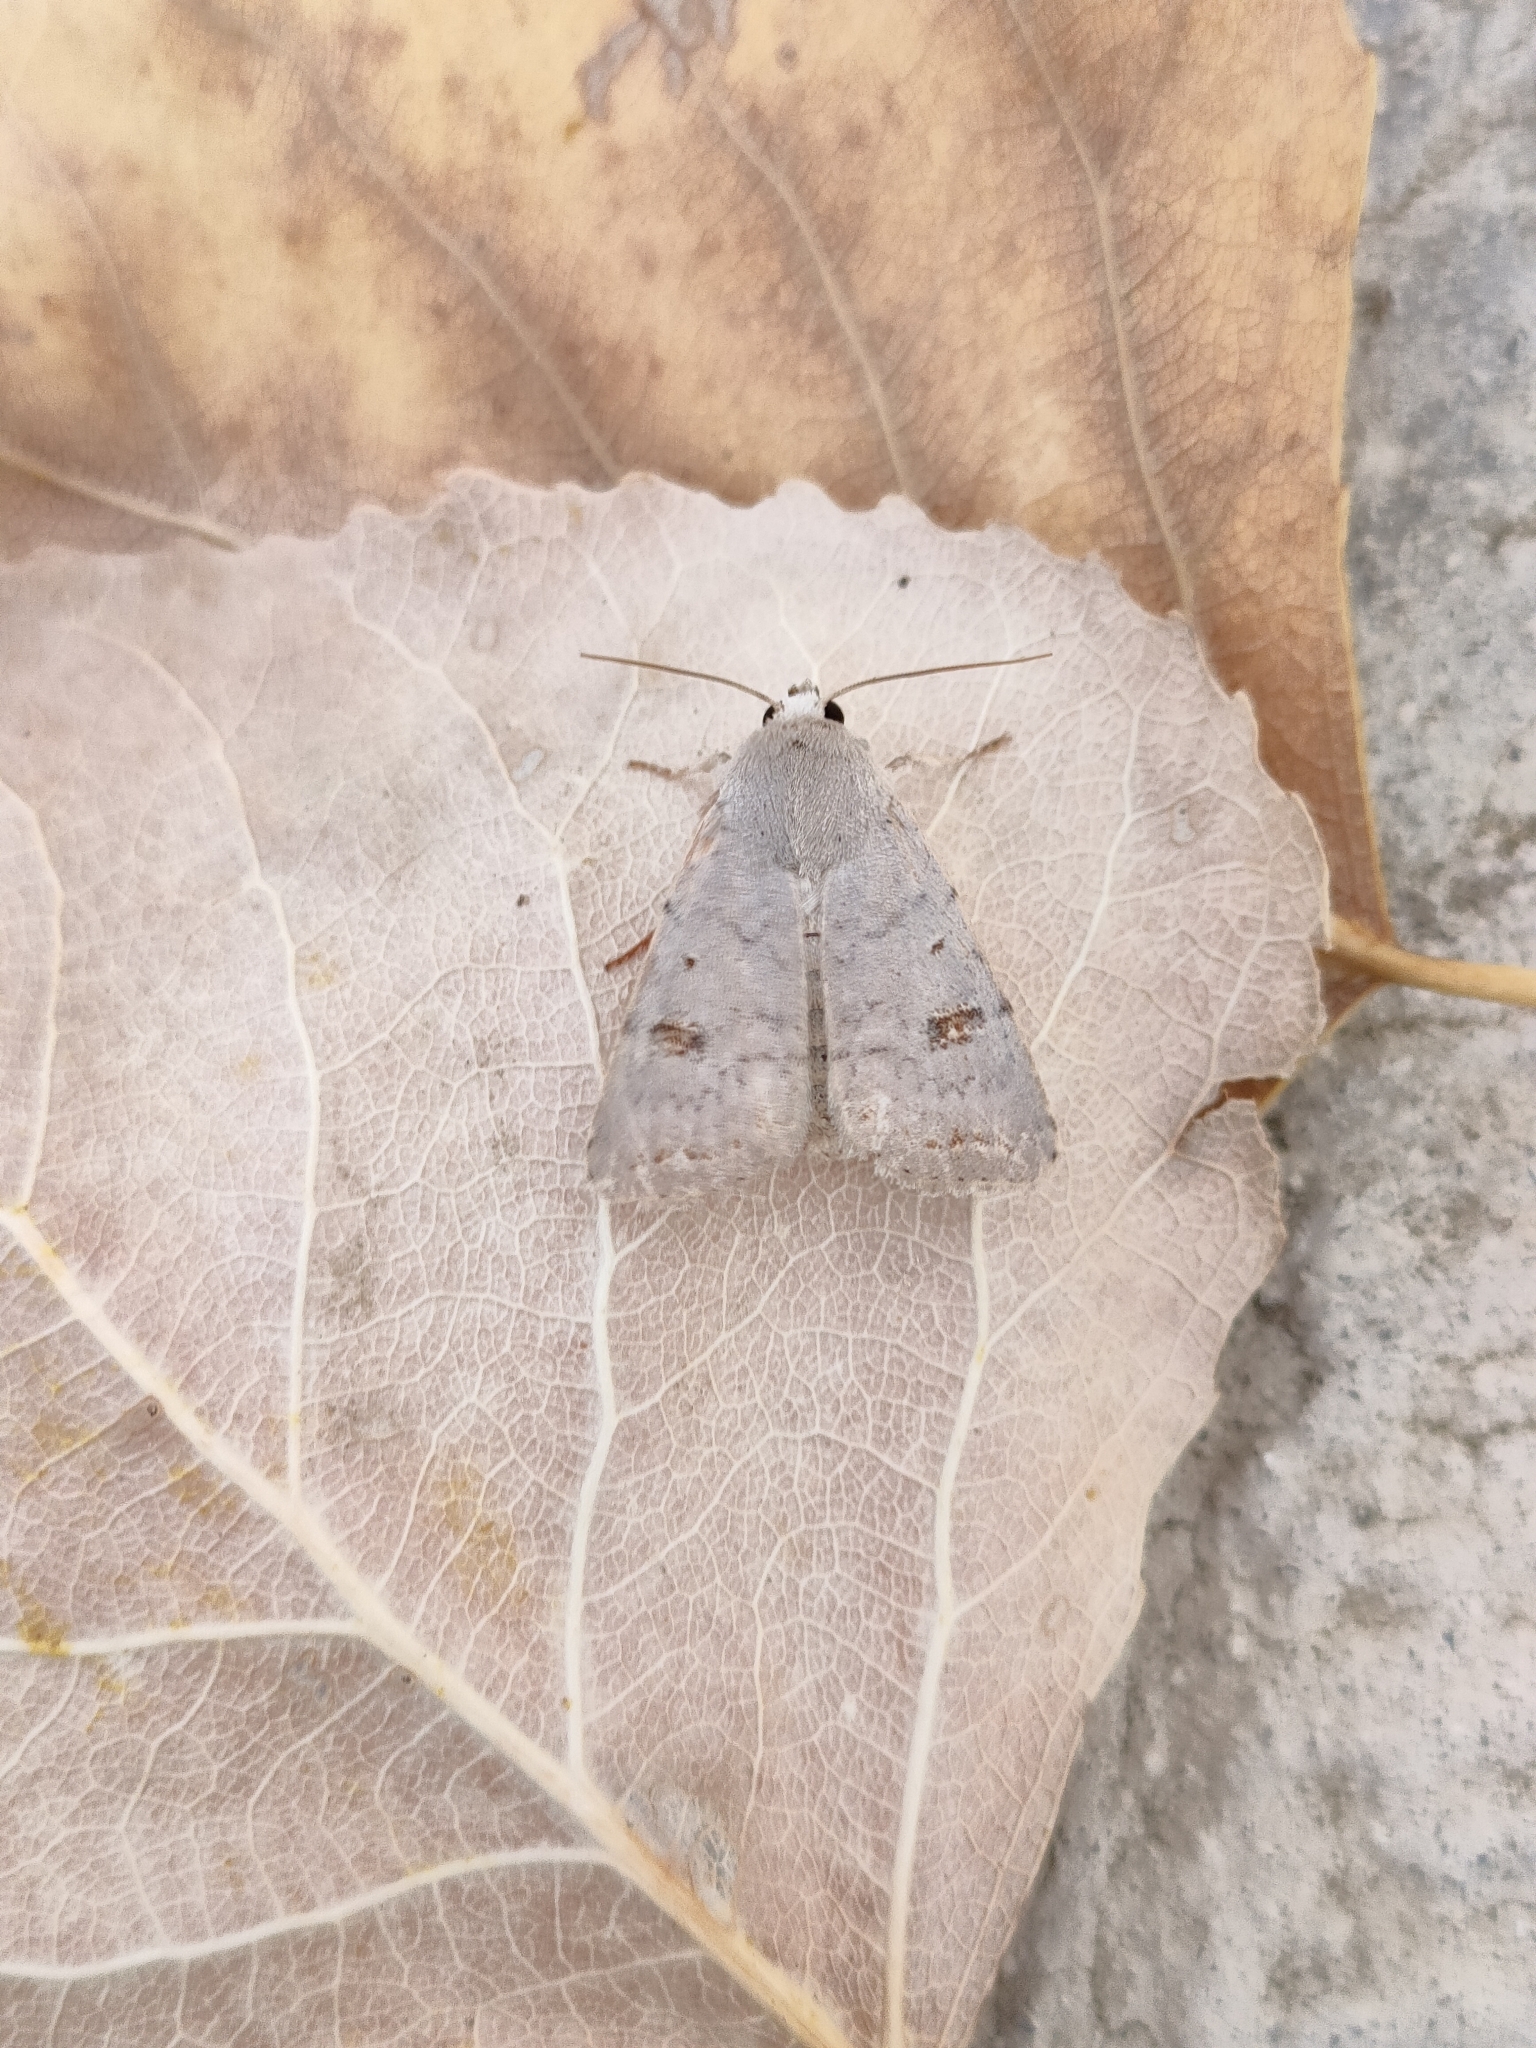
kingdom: Animalia
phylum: Arthropoda
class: Insecta
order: Lepidoptera
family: Noctuidae
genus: Caradrina
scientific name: Caradrina proxima
